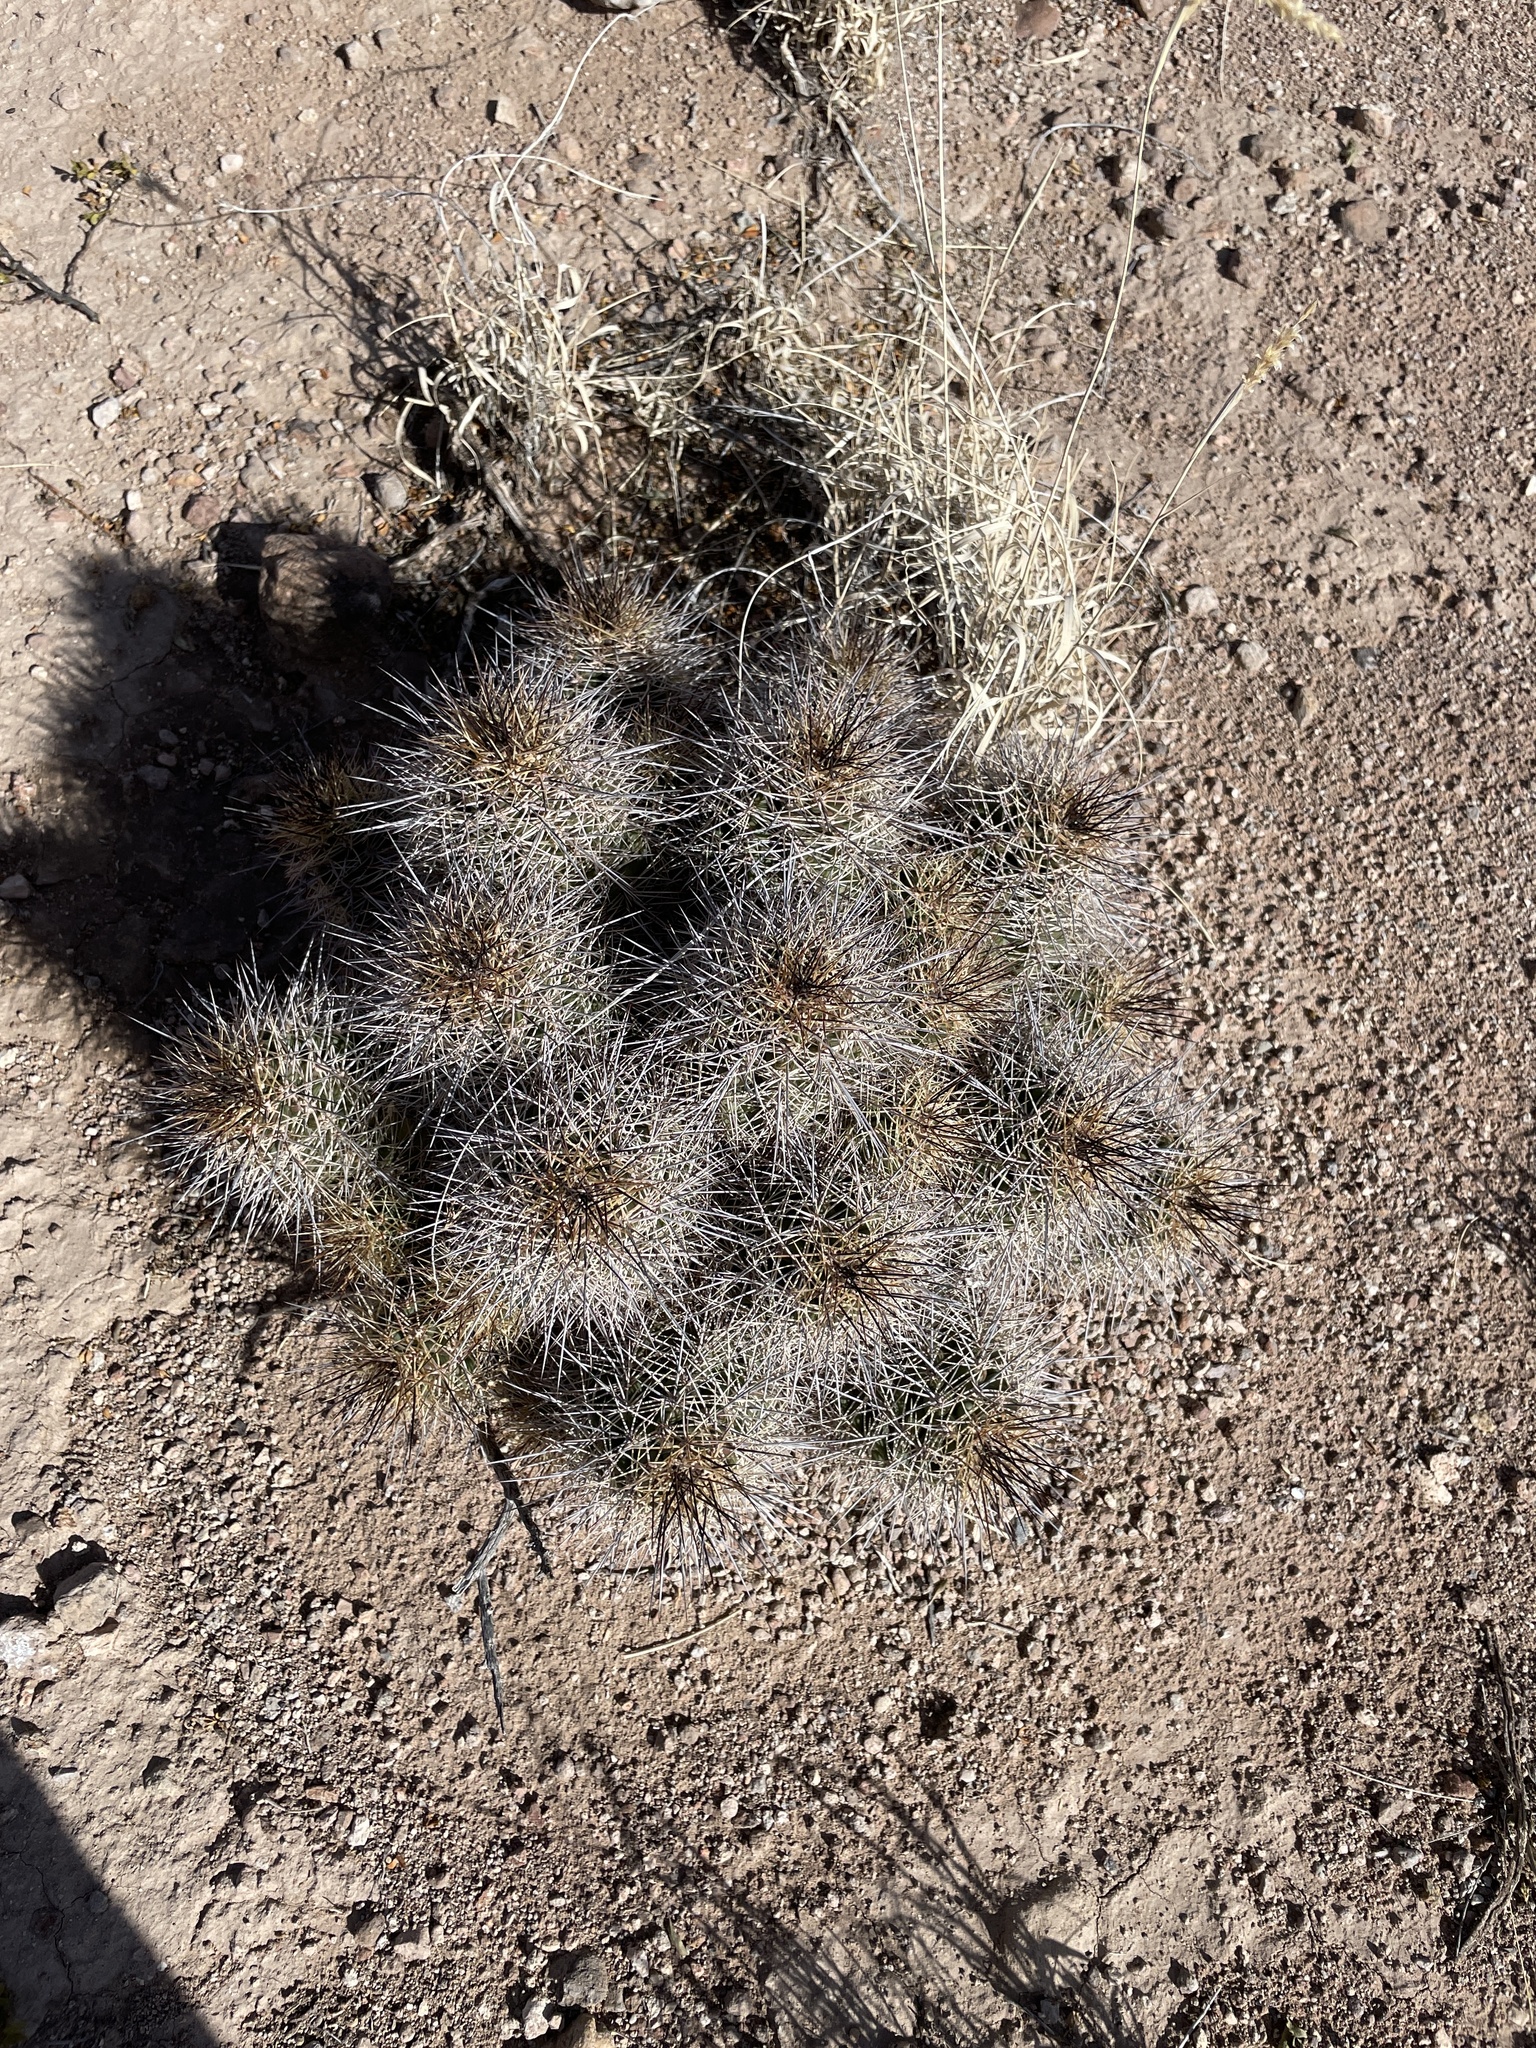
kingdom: Plantae
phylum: Tracheophyta
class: Magnoliopsida
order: Caryophyllales
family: Cactaceae
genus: Echinocereus
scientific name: Echinocereus coccineus
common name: Scarlet hedgehog cactus
